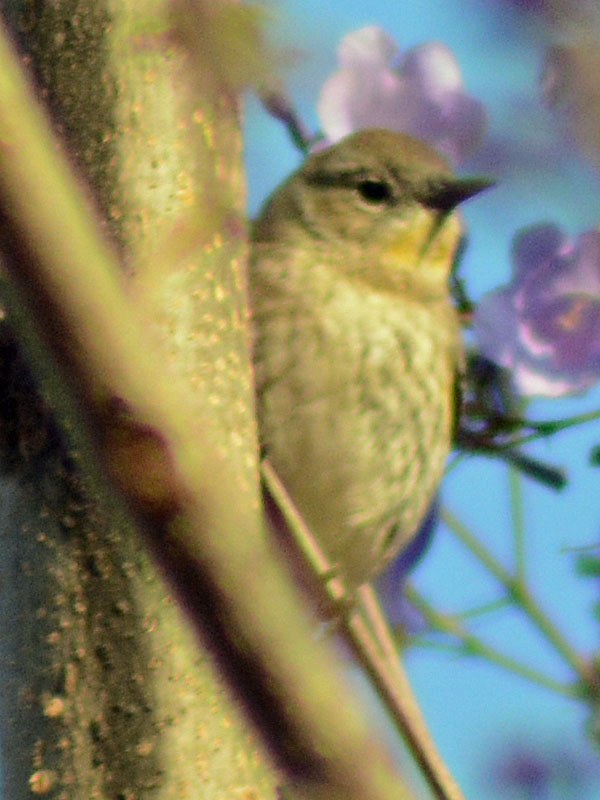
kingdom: Animalia
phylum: Chordata
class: Aves
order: Passeriformes
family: Parulidae
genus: Setophaga
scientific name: Setophaga coronata
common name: Myrtle warbler
